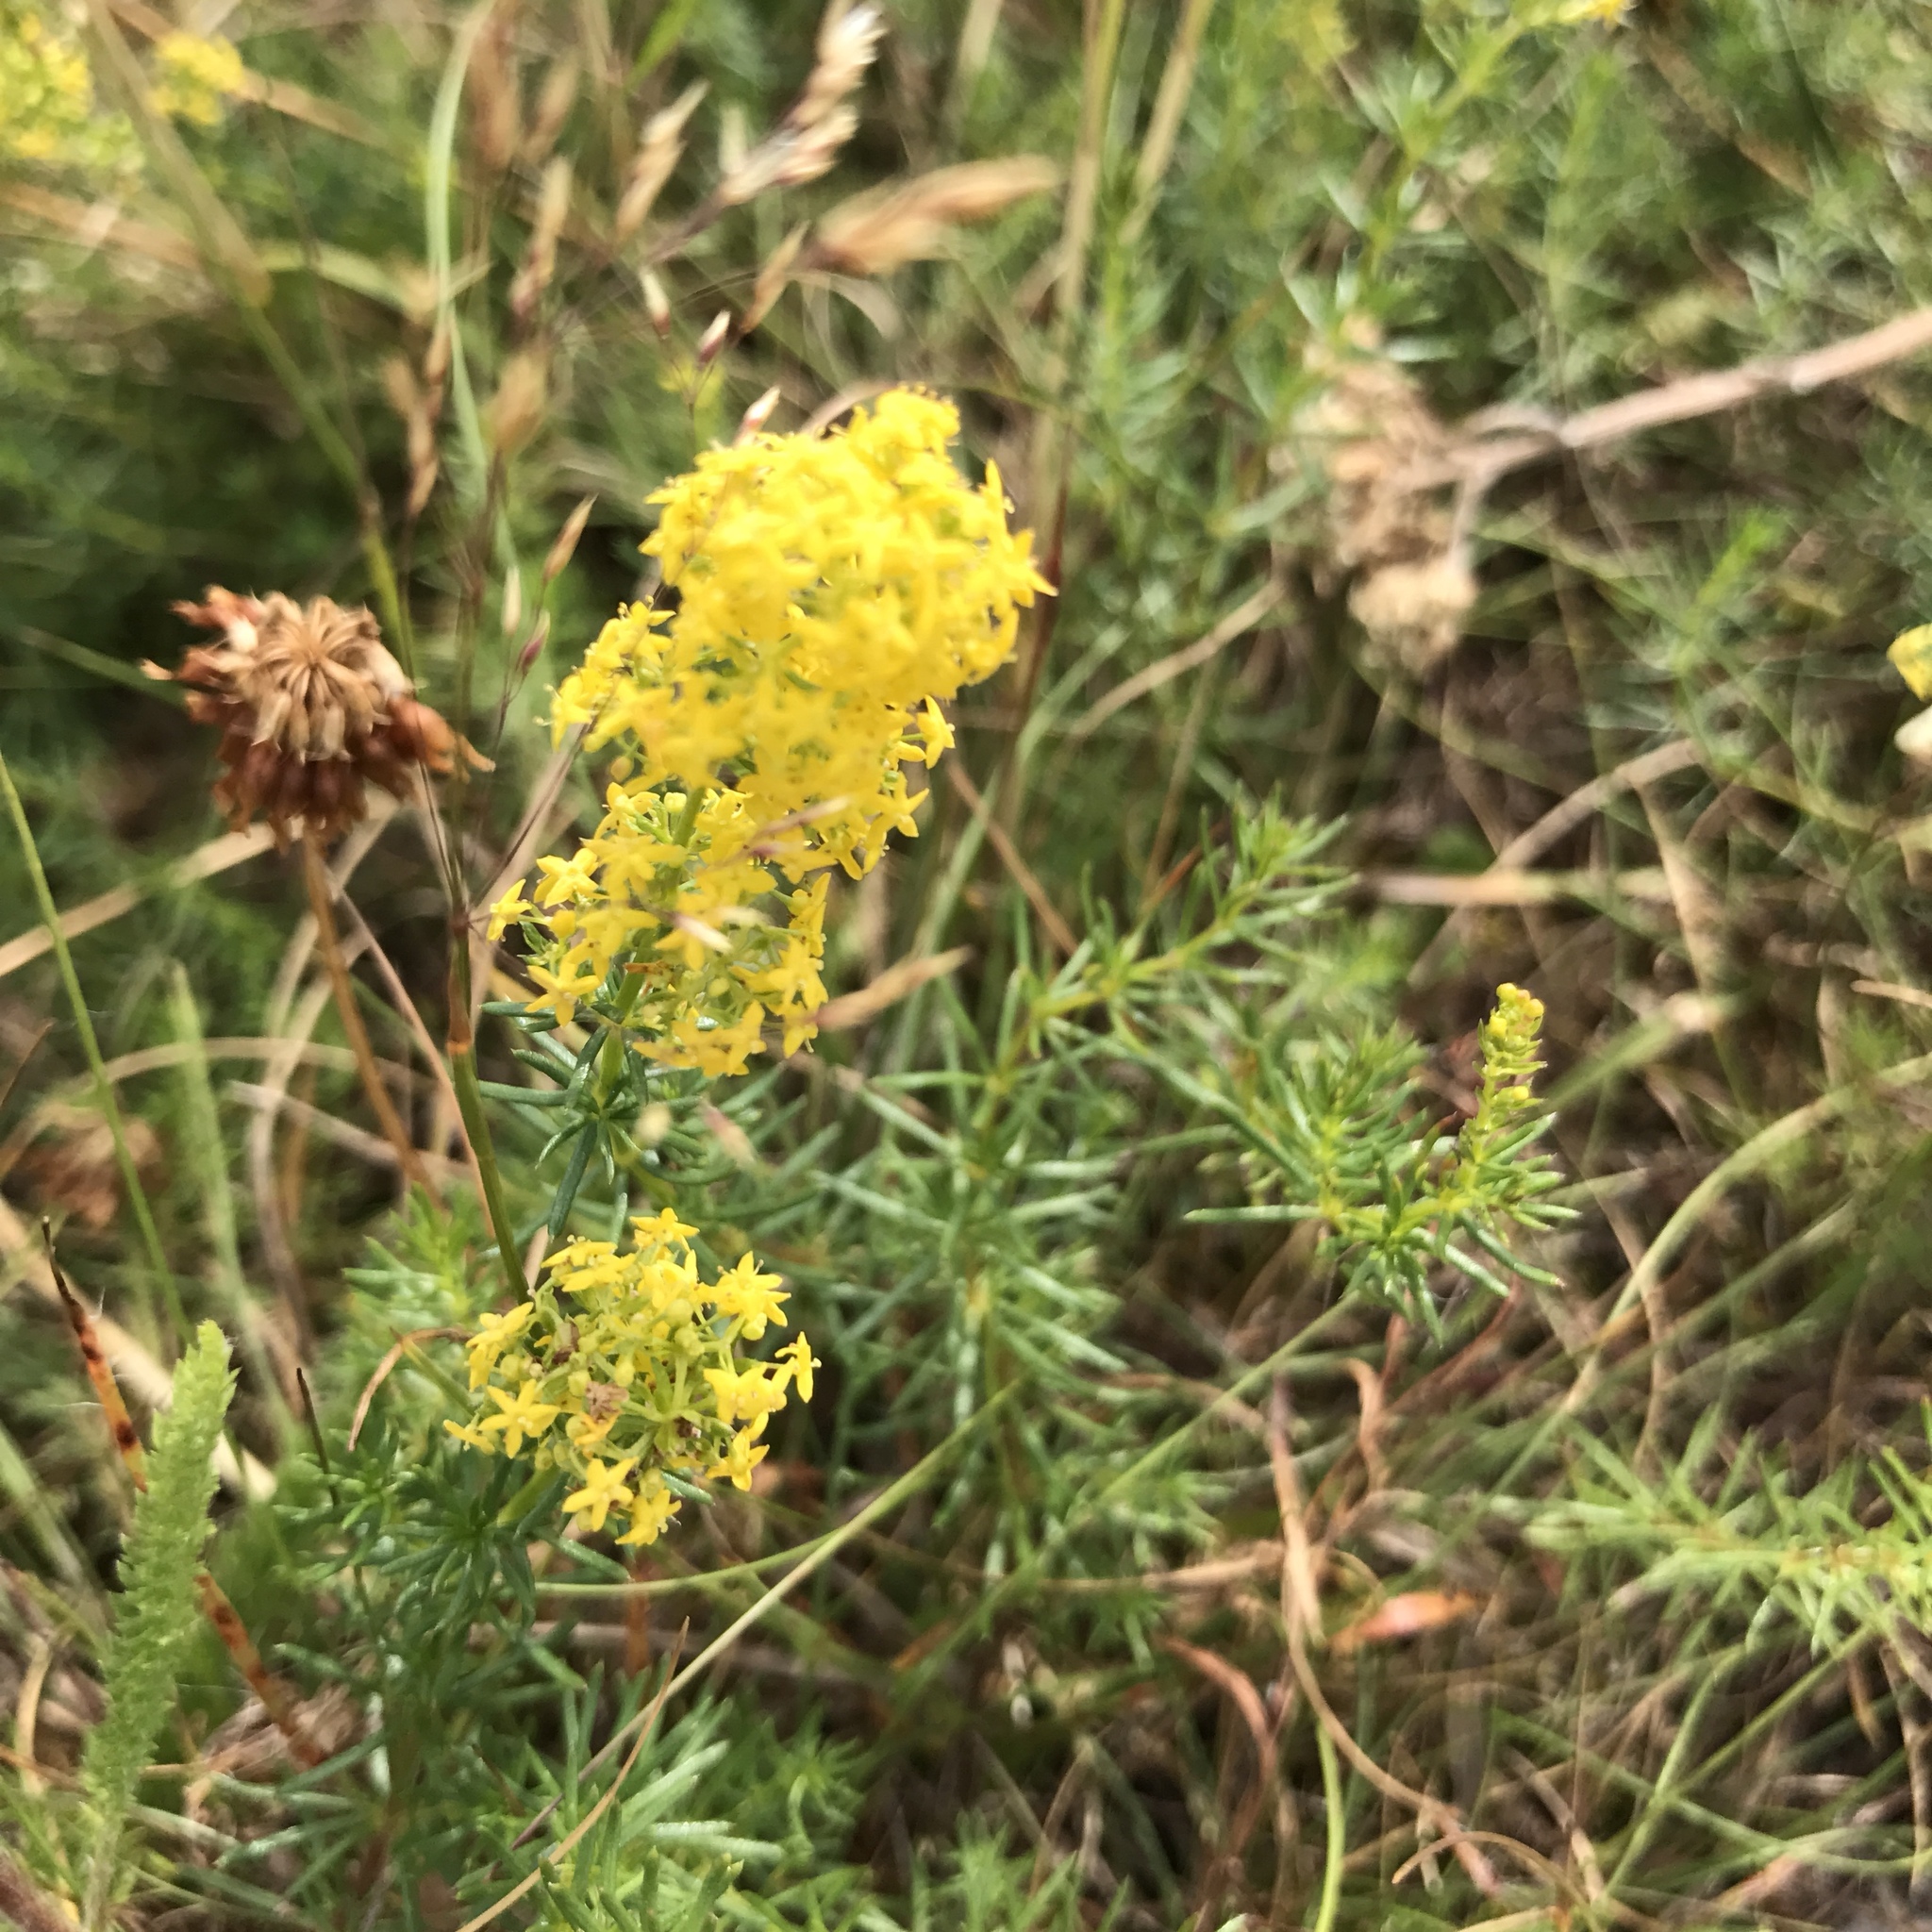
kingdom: Plantae
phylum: Tracheophyta
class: Magnoliopsida
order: Gentianales
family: Rubiaceae
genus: Galium
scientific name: Galium verum
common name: Lady's bedstraw
